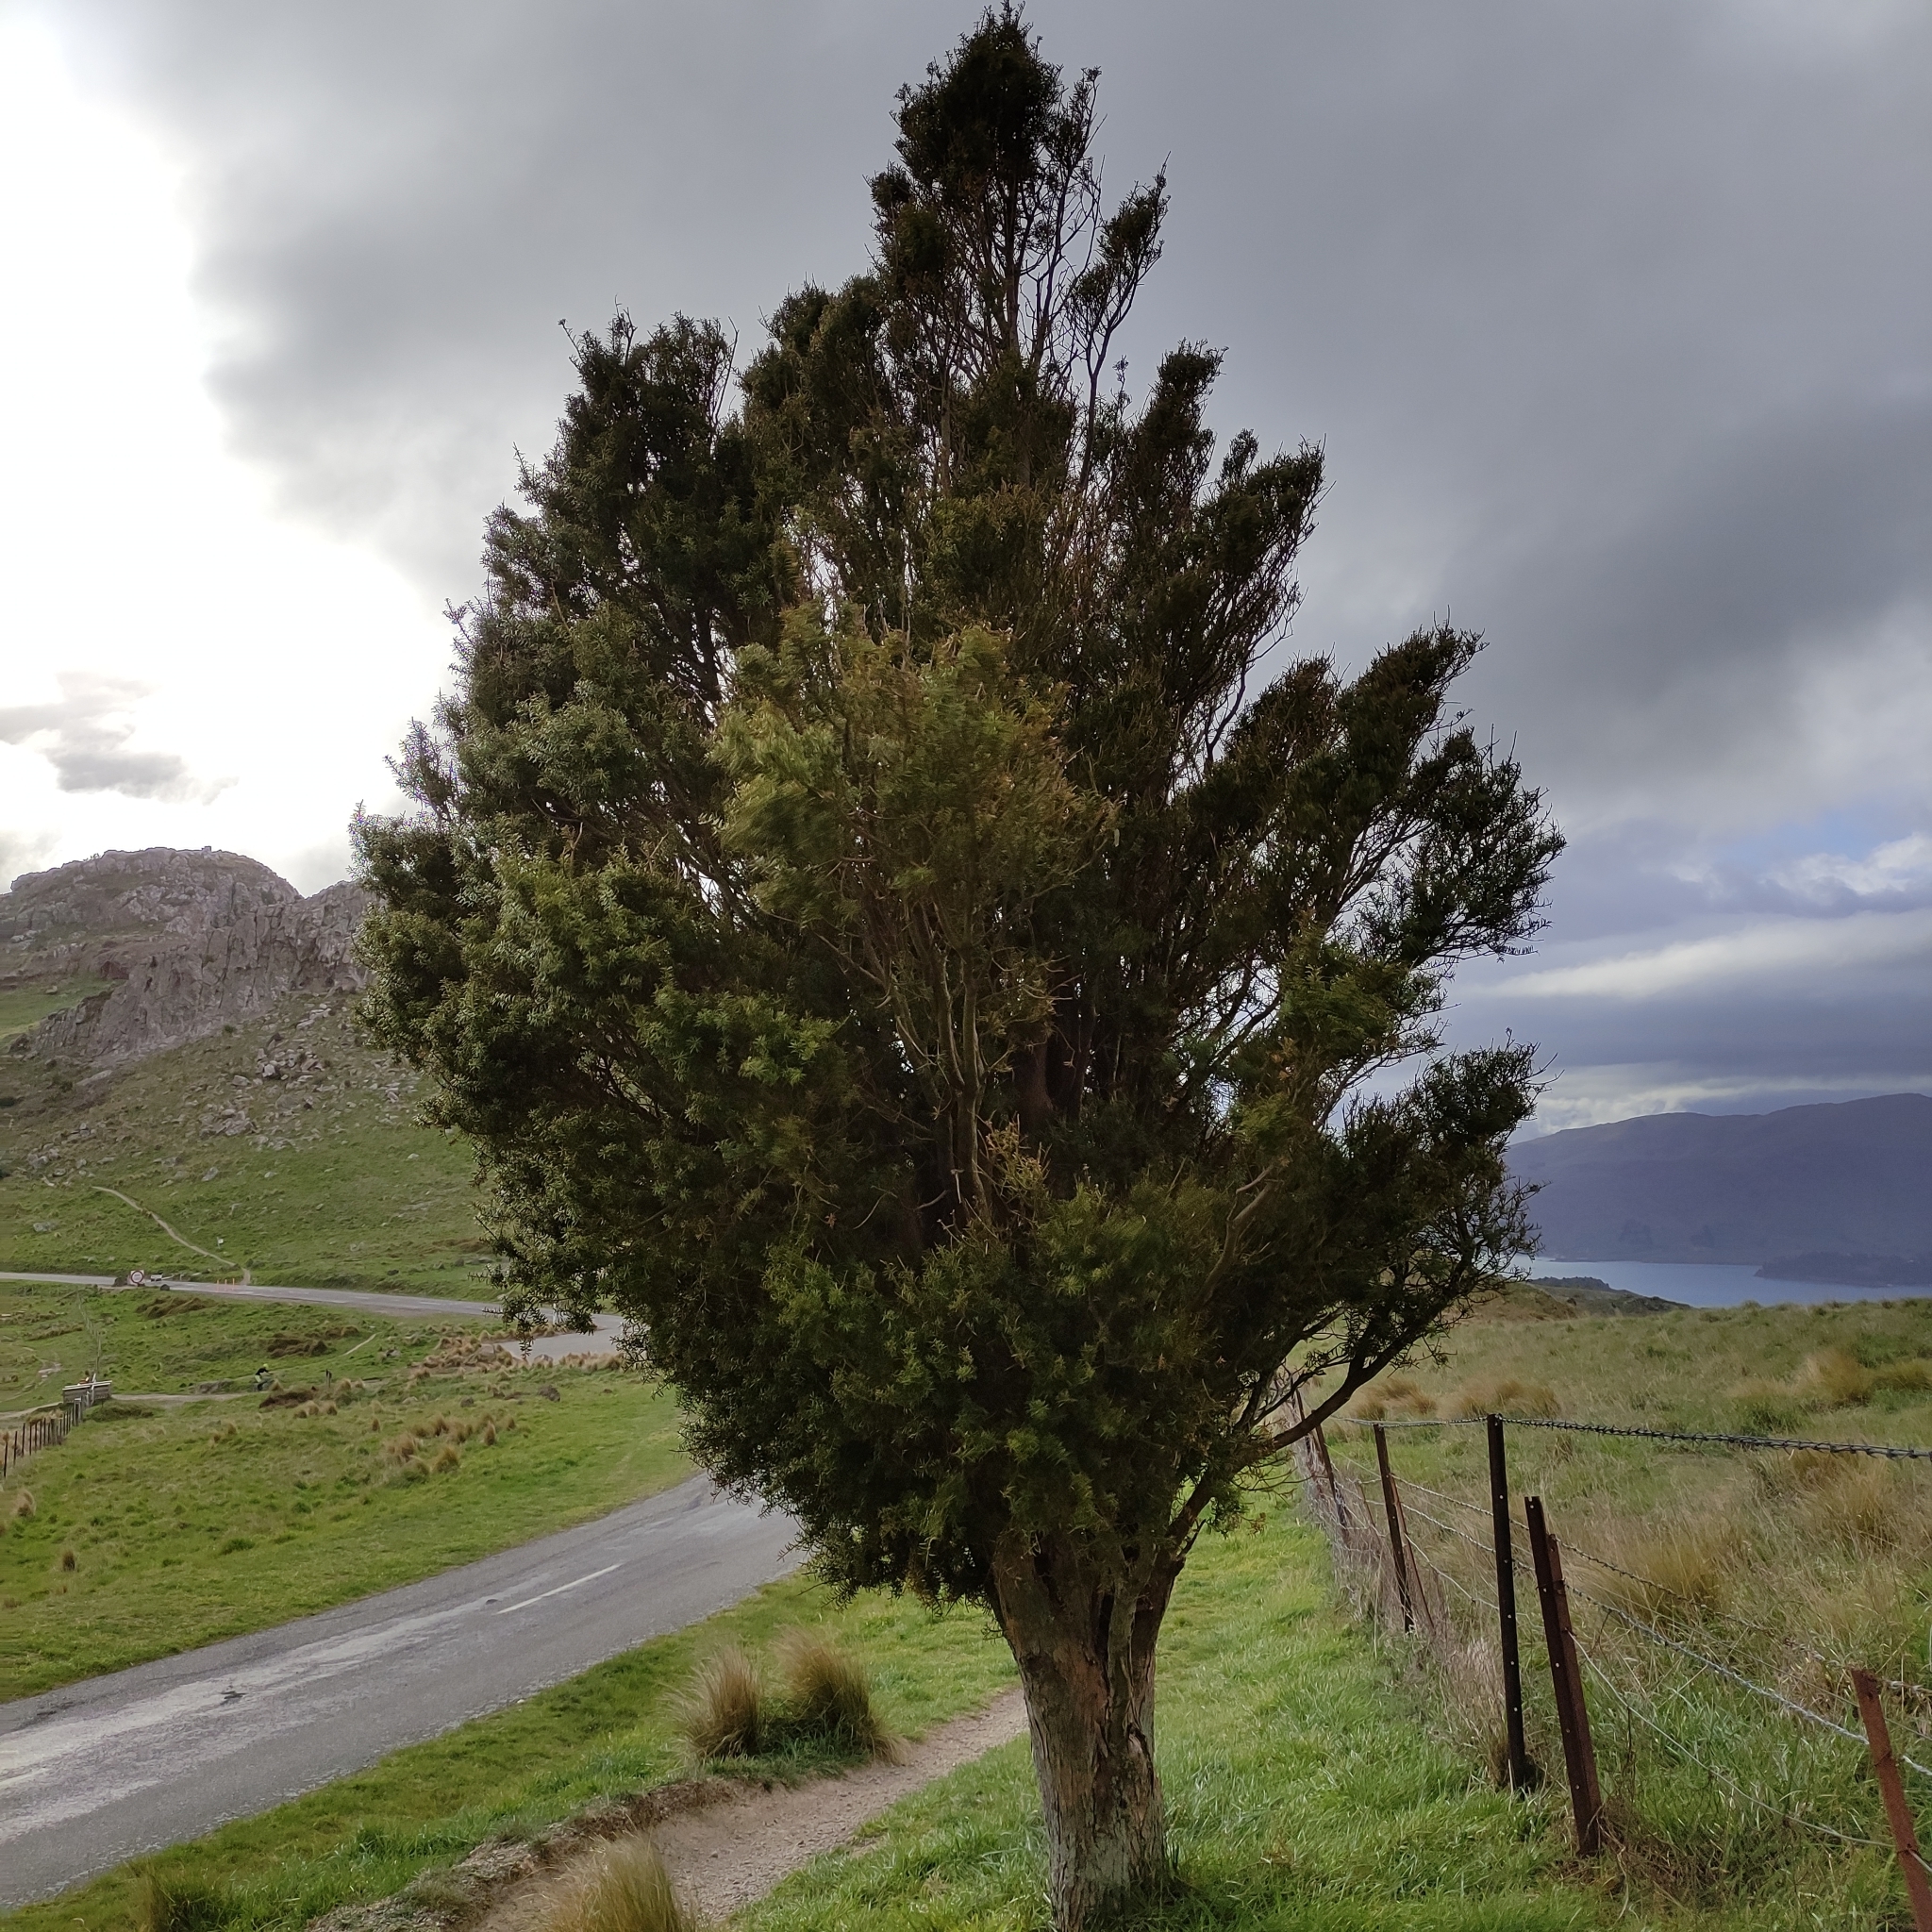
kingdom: Plantae
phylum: Tracheophyta
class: Pinopsida
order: Pinales
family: Podocarpaceae
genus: Podocarpus
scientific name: Podocarpus laetus
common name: Hall's totara
